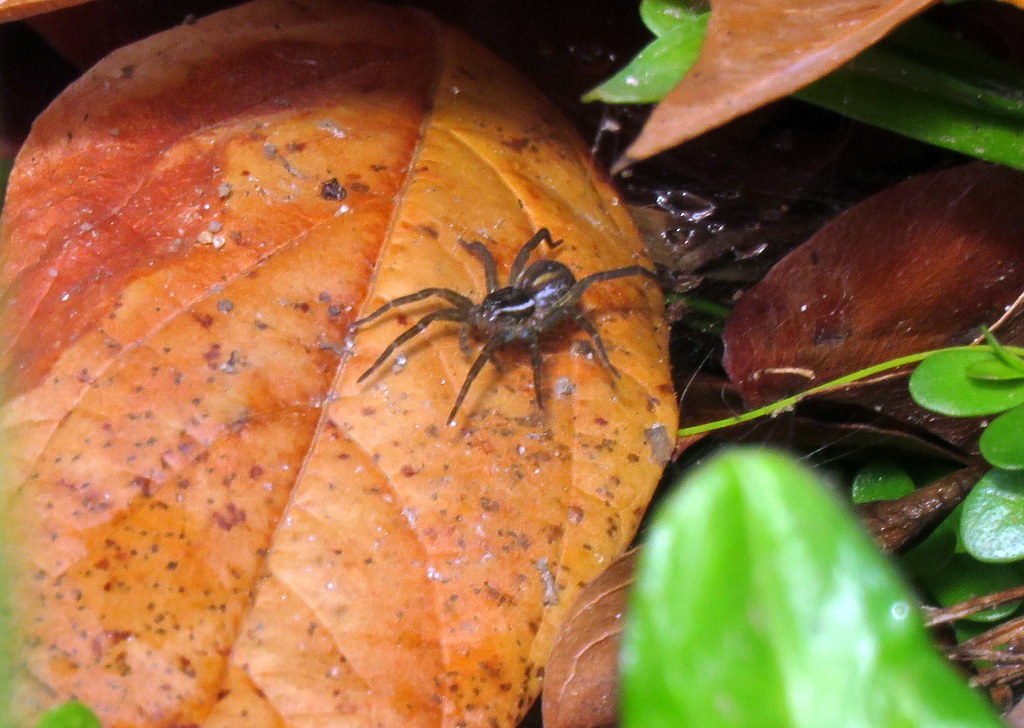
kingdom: Animalia
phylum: Arthropoda
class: Arachnida
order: Araneae
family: Lycosidae
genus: Diapontia
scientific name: Diapontia uruguayensis
